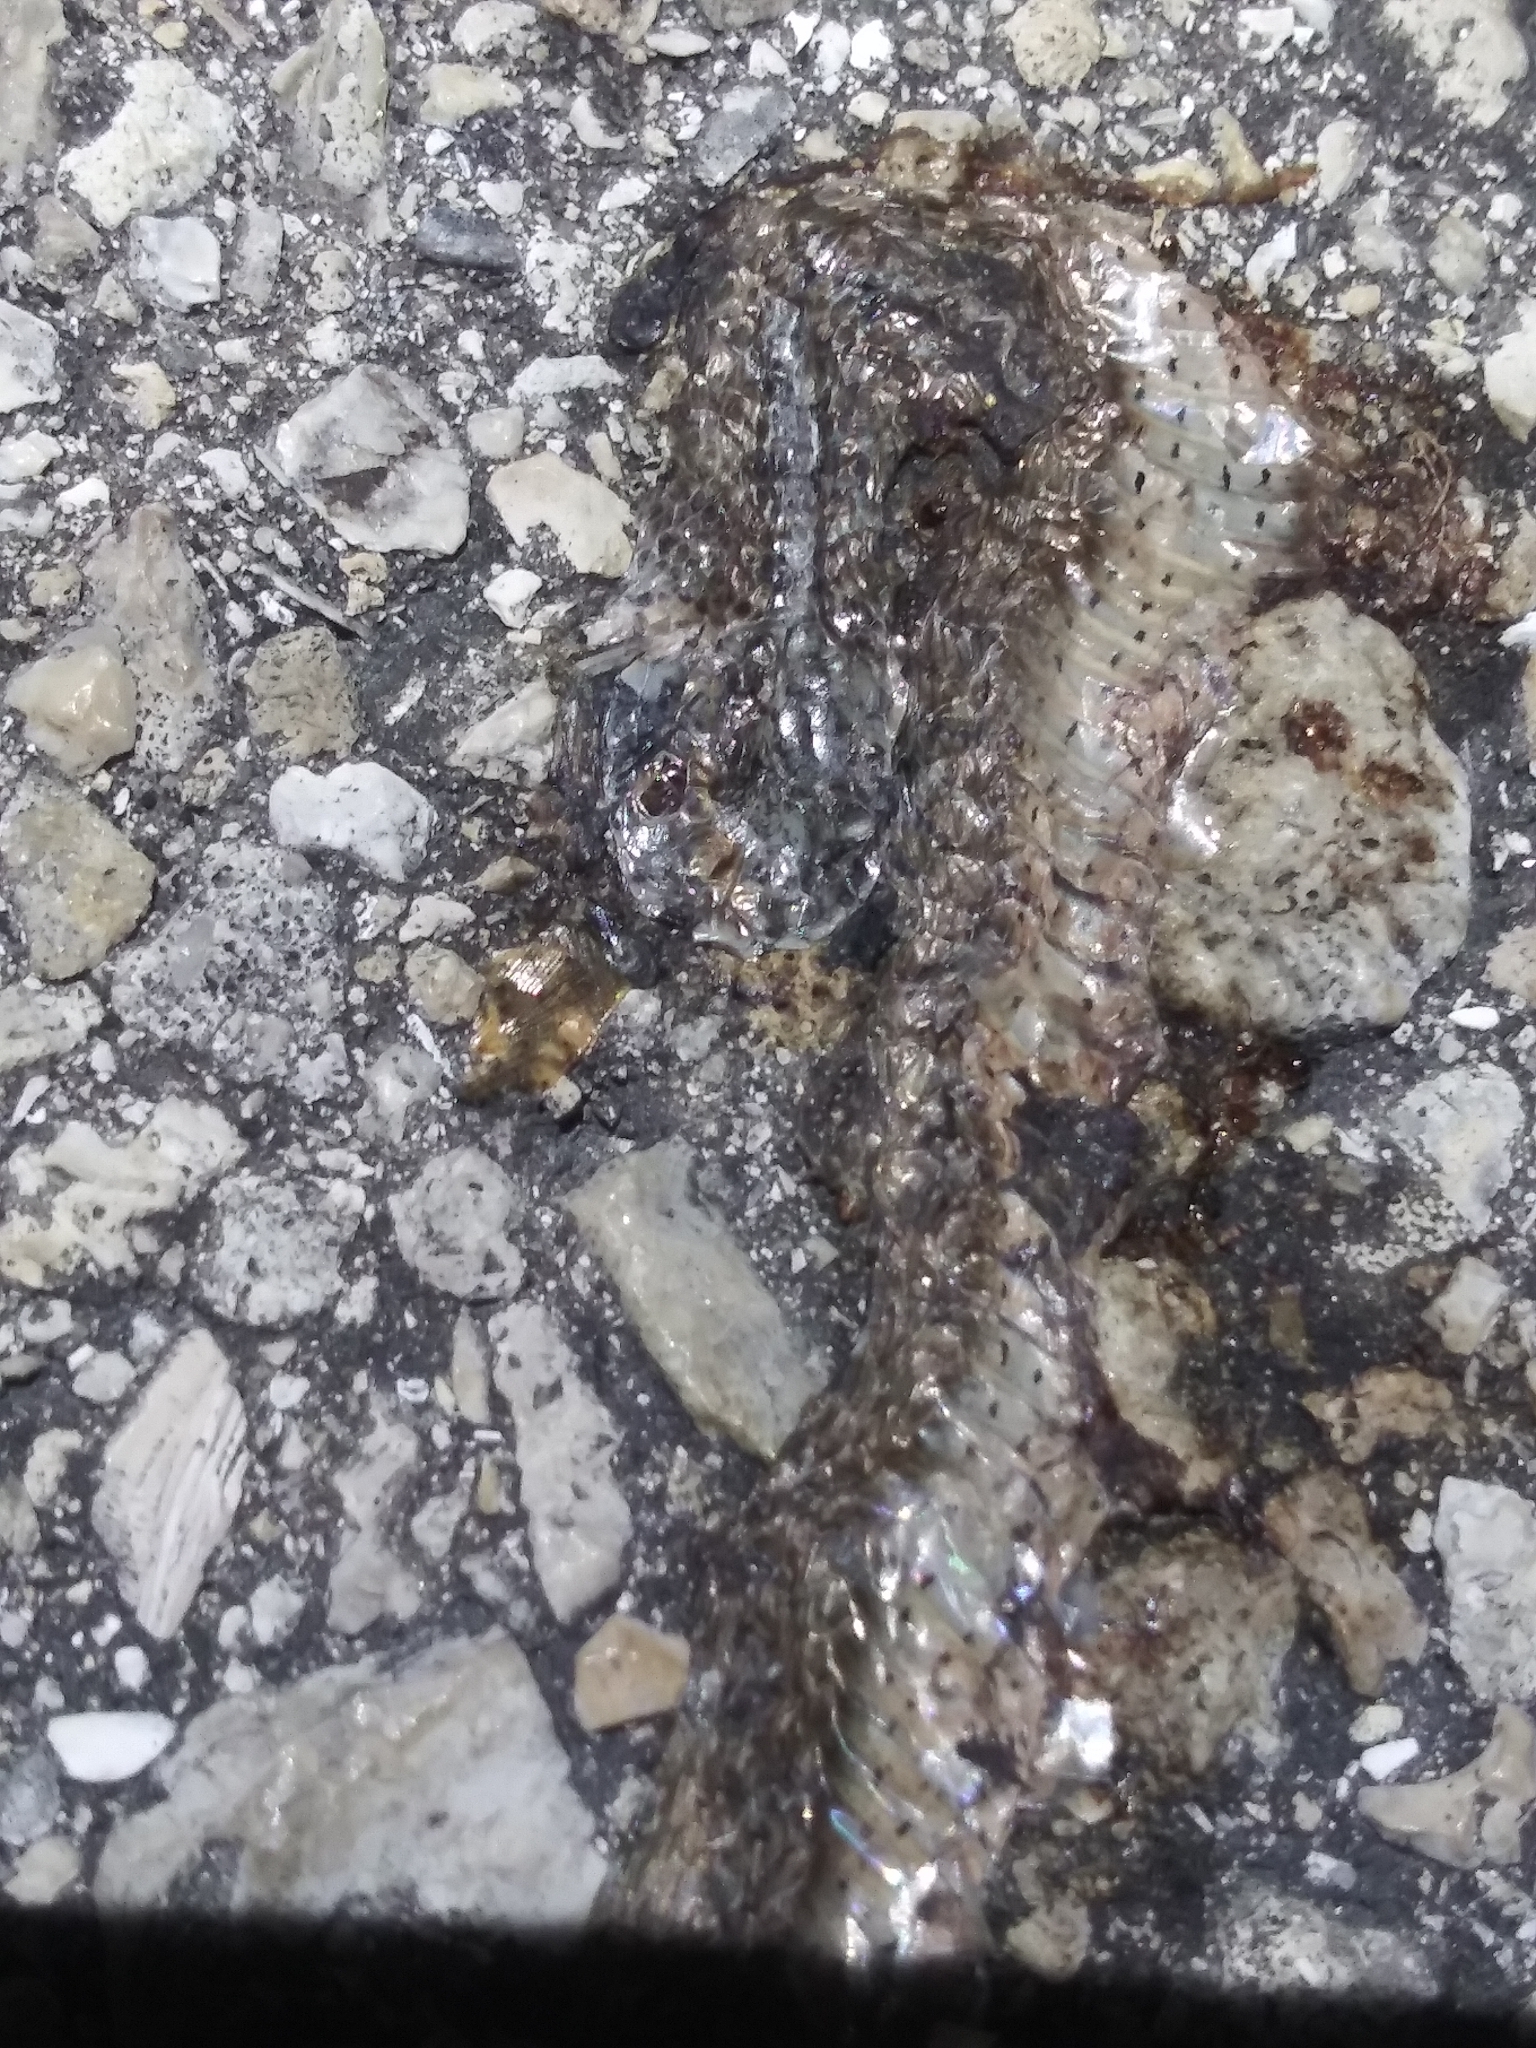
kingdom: Animalia
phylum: Chordata
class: Squamata
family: Colubridae
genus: Storeria
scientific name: Storeria victa
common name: Florida brown snake
